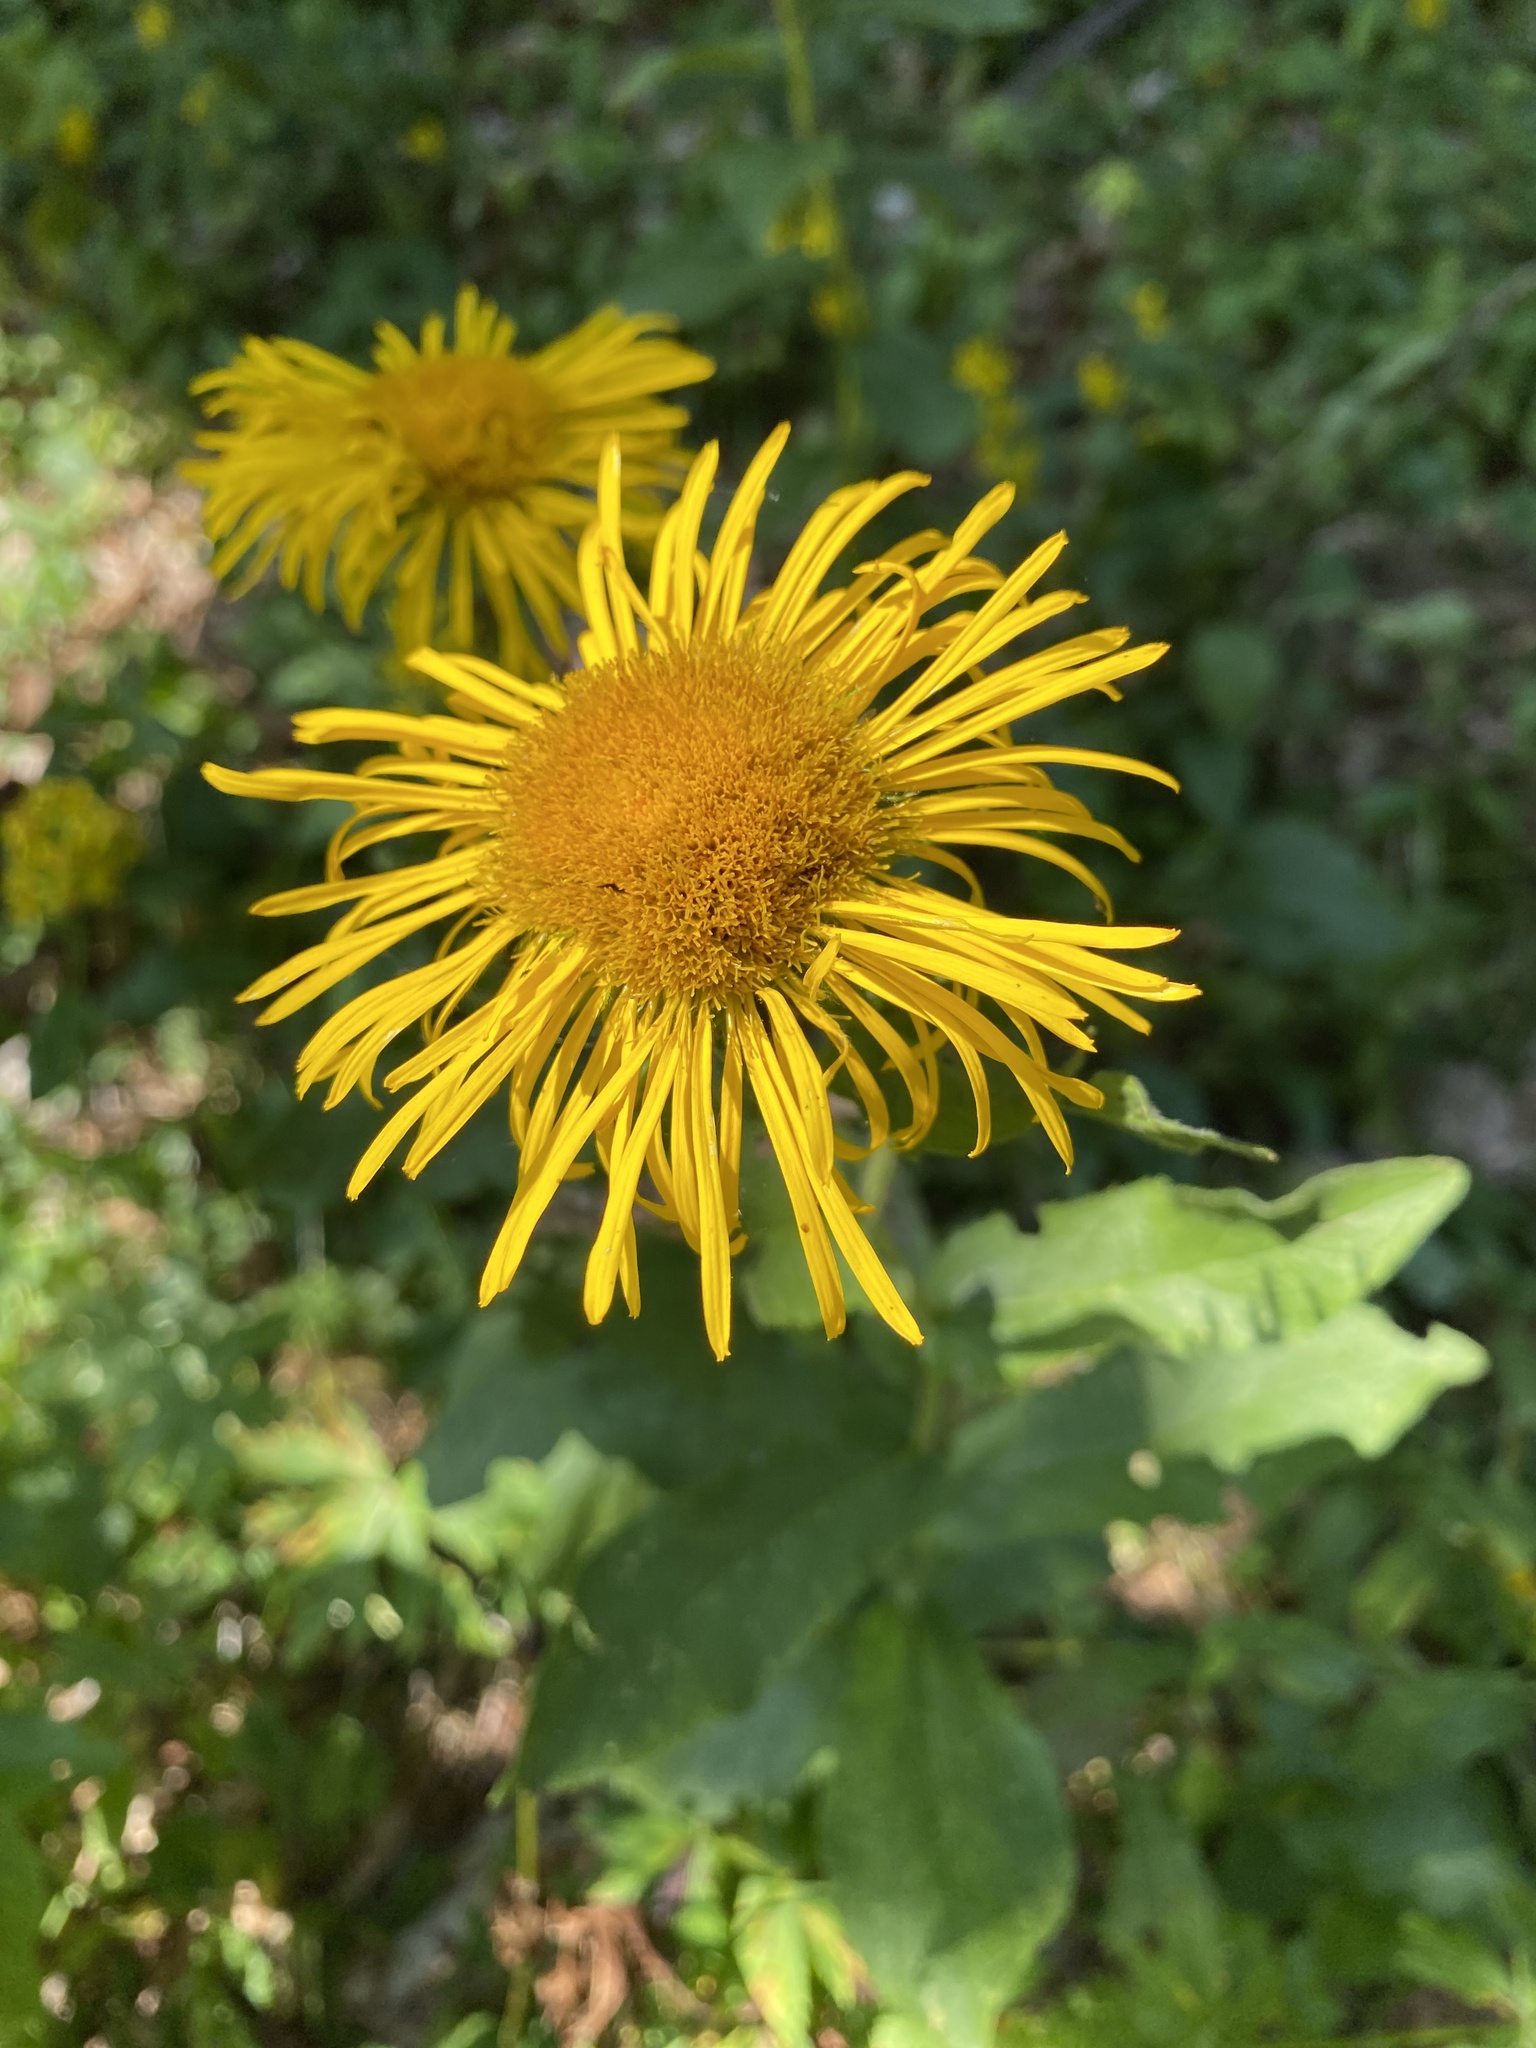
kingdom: Plantae
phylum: Tracheophyta
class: Magnoliopsida
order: Asterales
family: Asteraceae
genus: Pentanema
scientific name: Pentanema orientale
